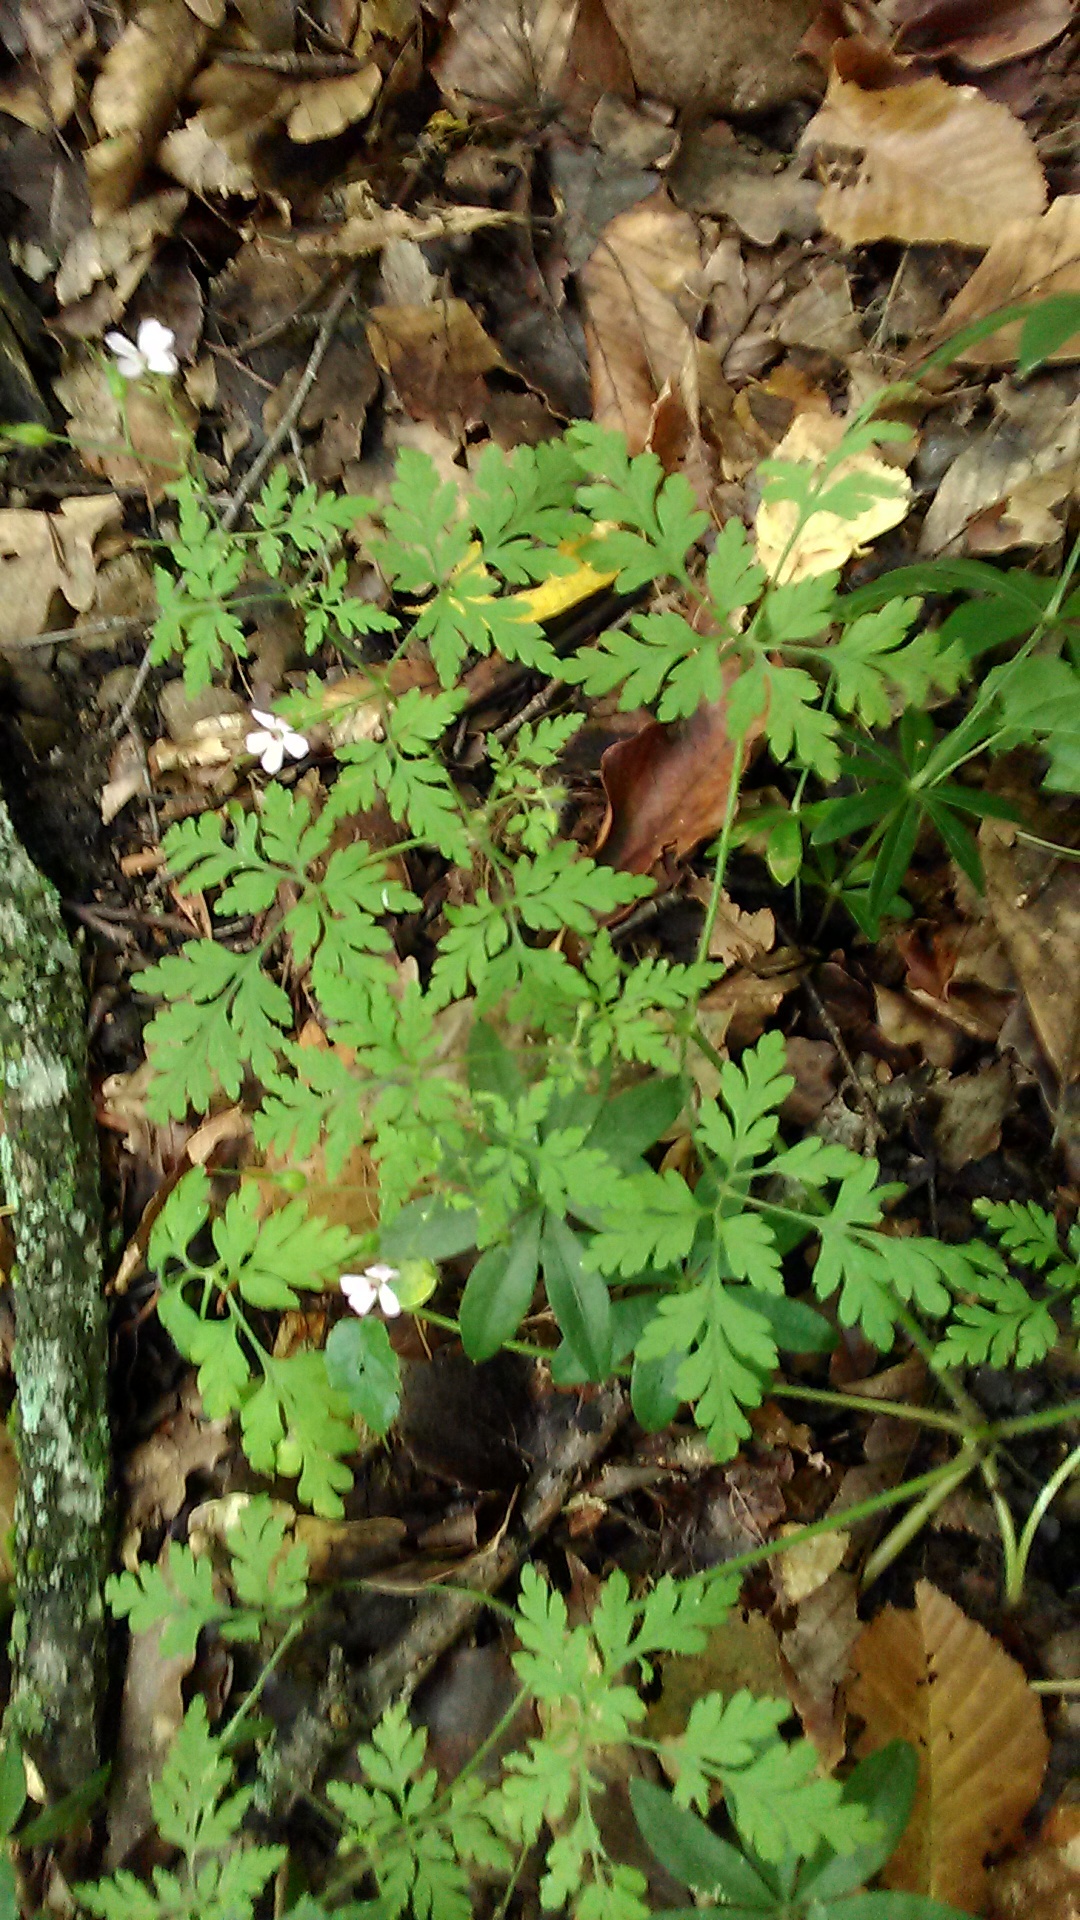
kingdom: Plantae
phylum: Tracheophyta
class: Magnoliopsida
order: Geraniales
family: Geraniaceae
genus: Geranium
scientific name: Geranium robertianum
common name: Herb-robert
